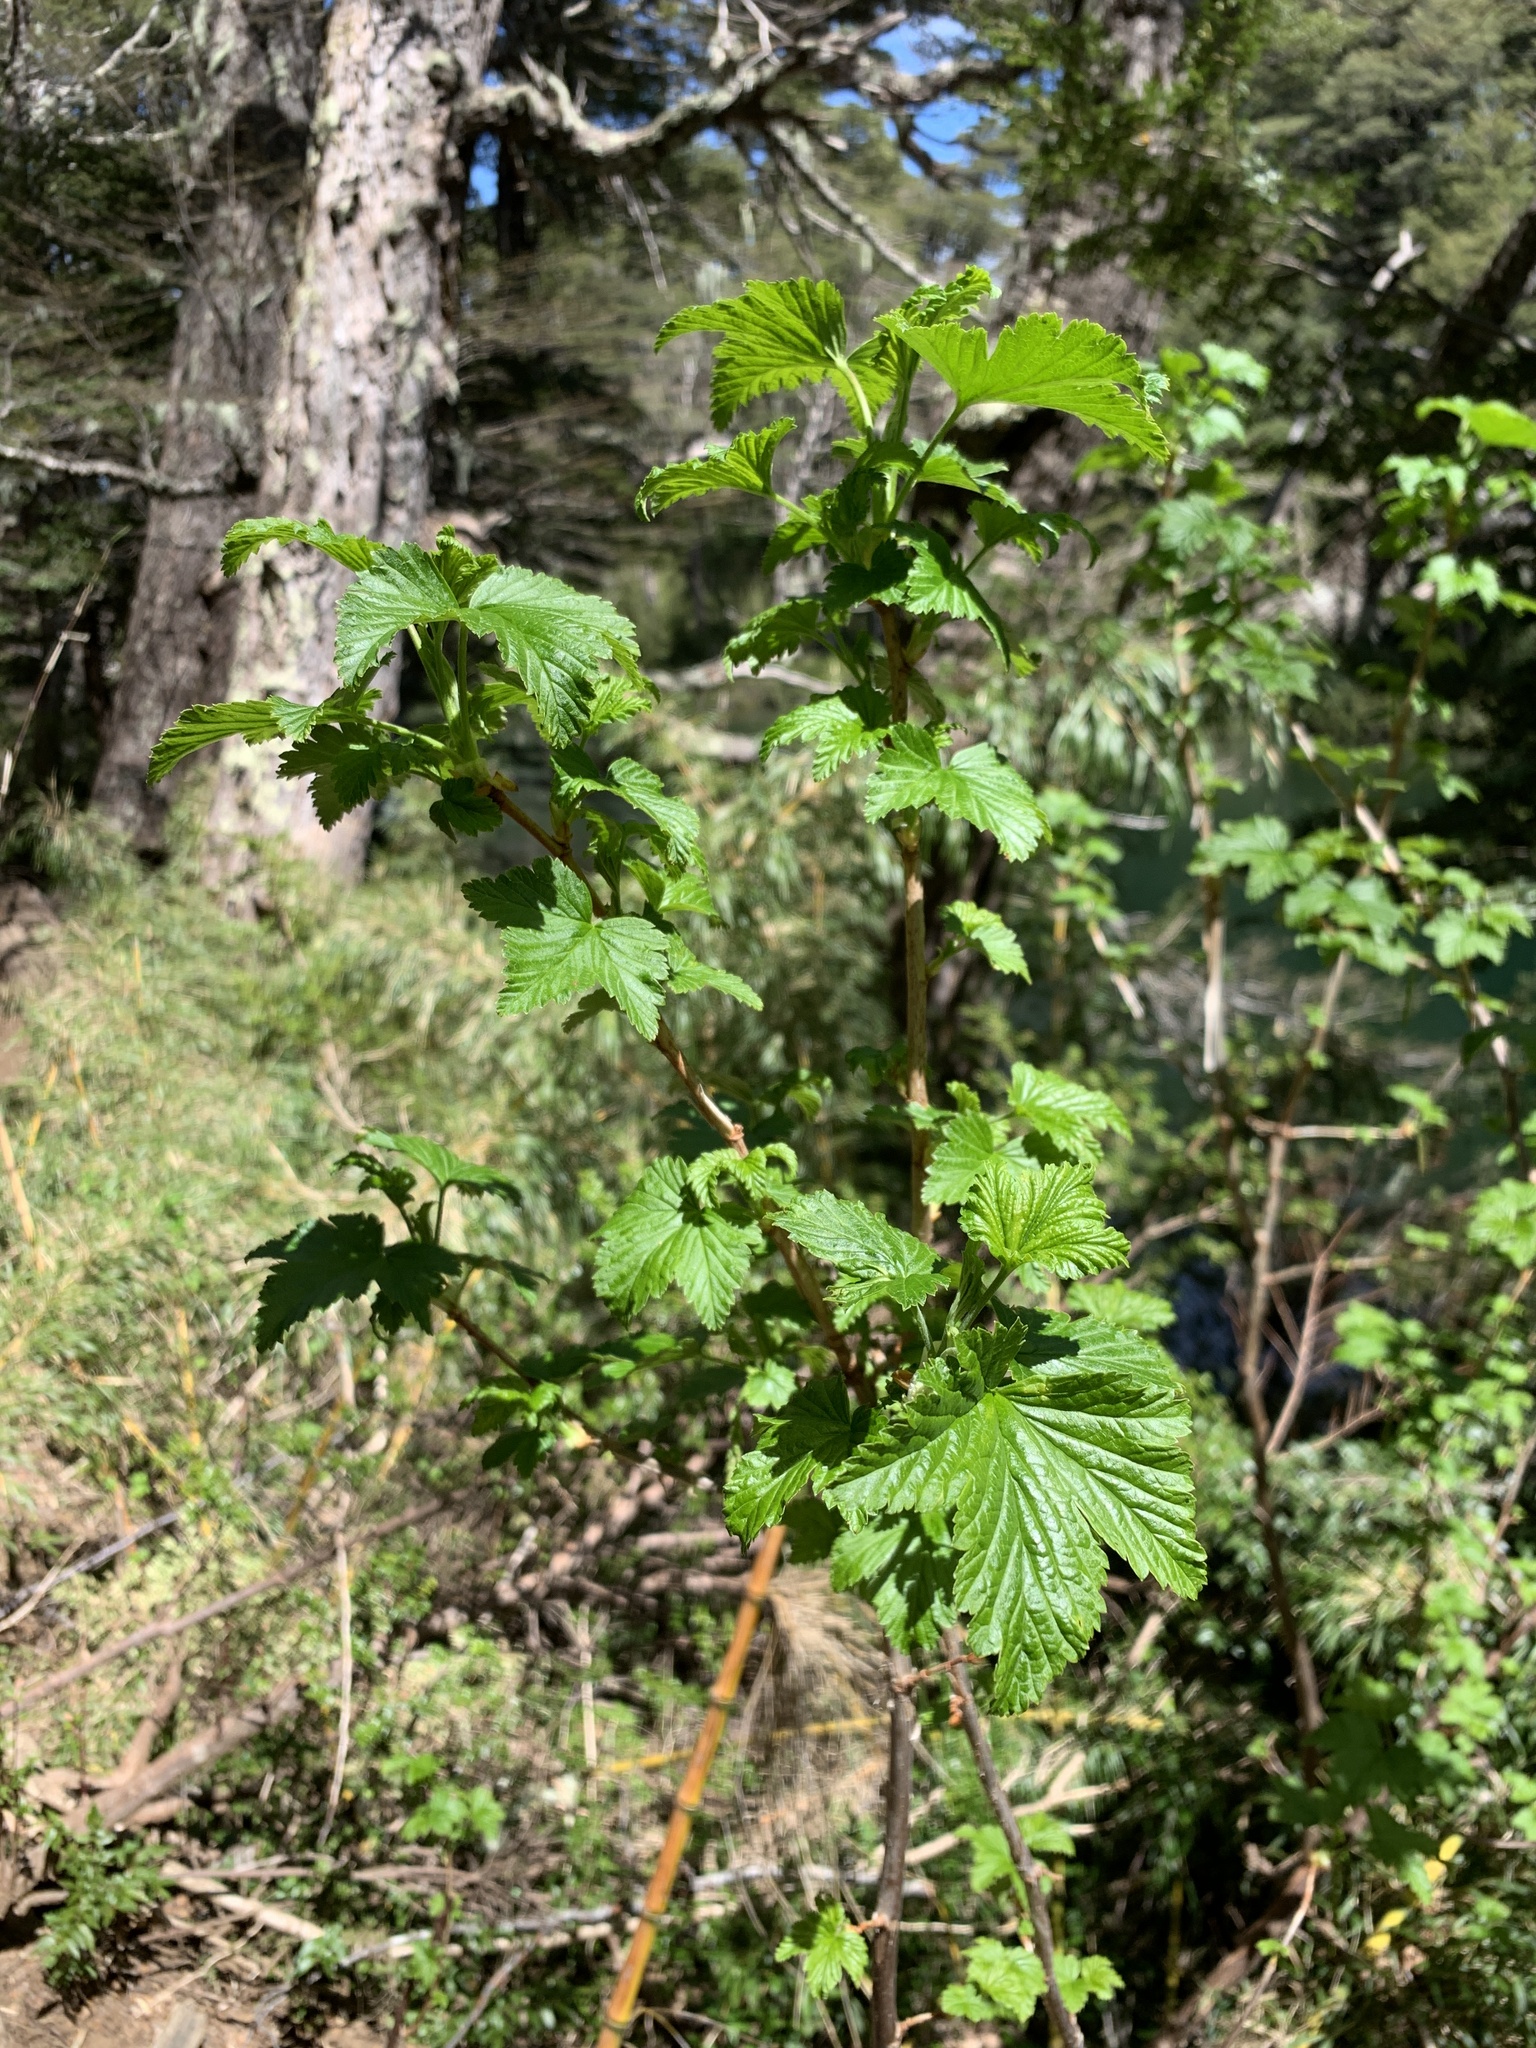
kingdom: Plantae
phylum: Tracheophyta
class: Magnoliopsida
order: Saxifragales
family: Grossulariaceae
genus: Ribes
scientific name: Ribes magellanicum
